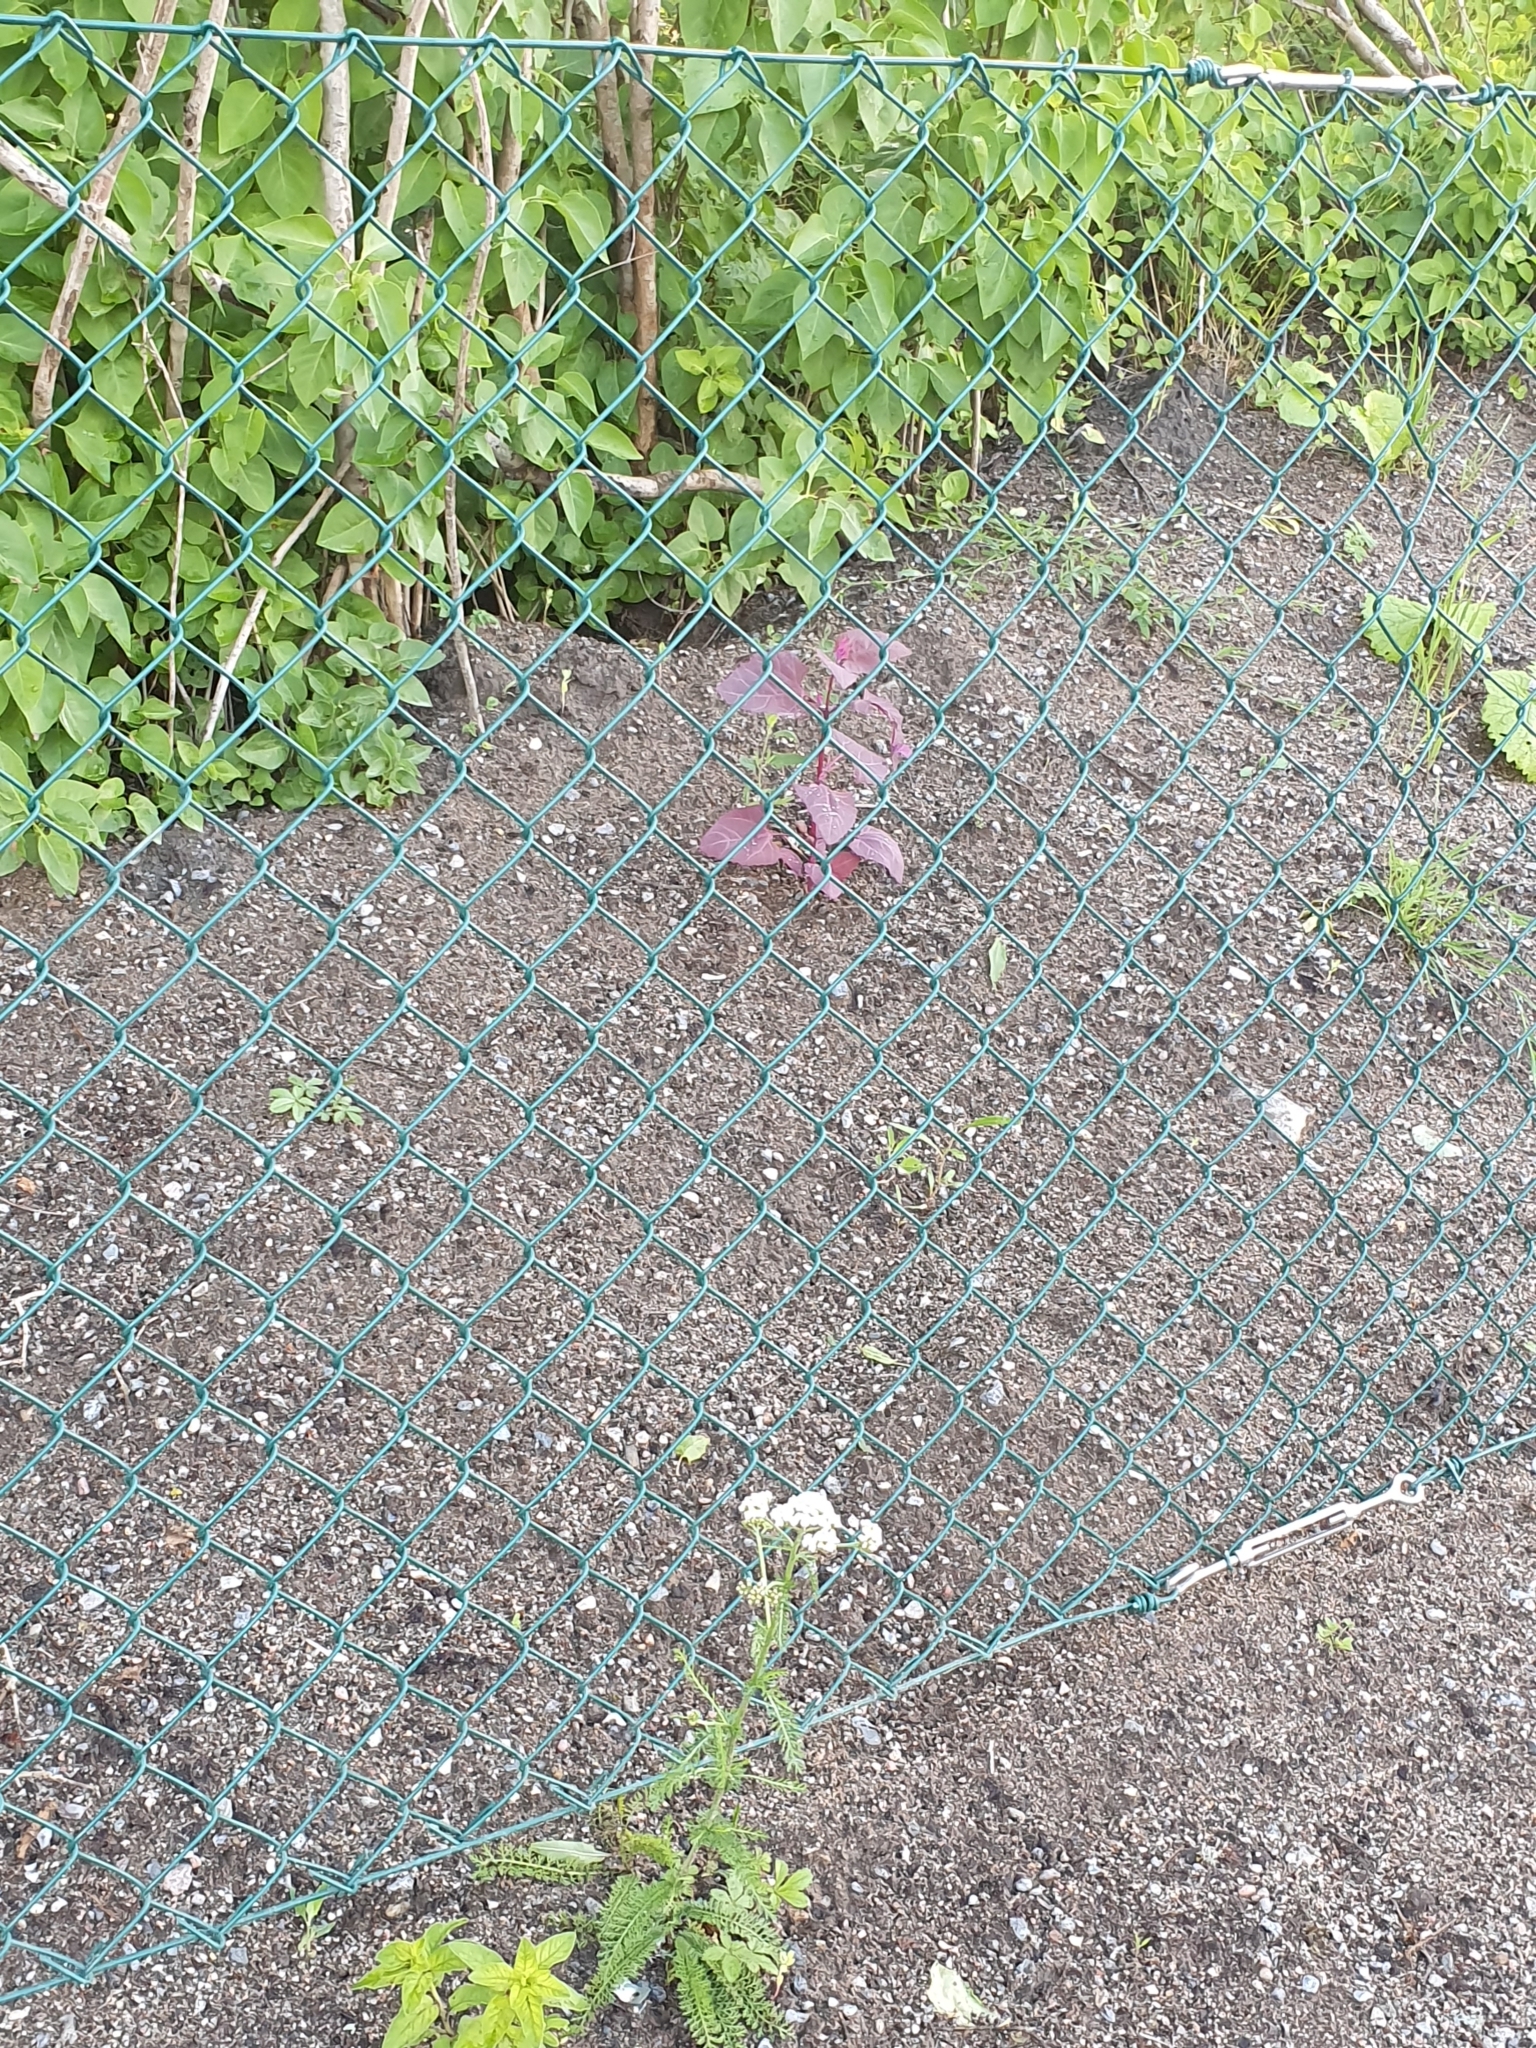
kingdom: Plantae
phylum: Tracheophyta
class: Magnoliopsida
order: Caryophyllales
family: Amaranthaceae
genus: Atriplex
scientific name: Atriplex hortensis
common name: Garden orache
